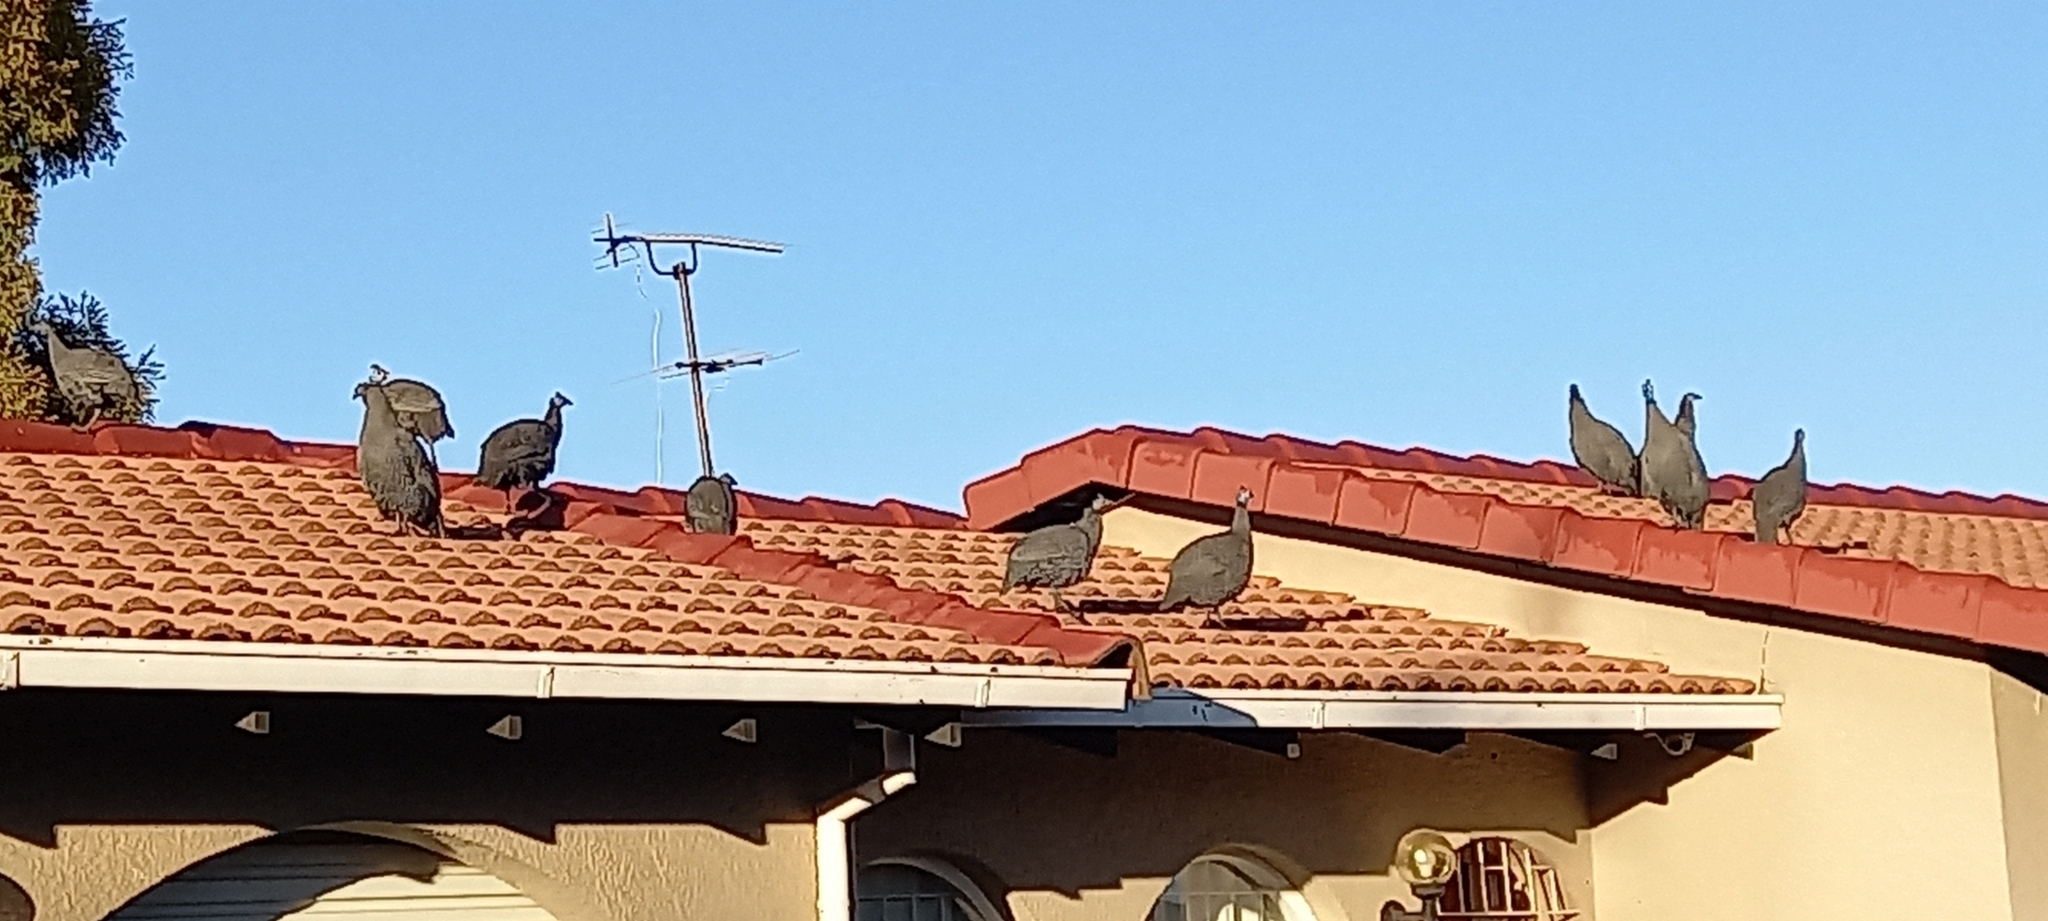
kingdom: Animalia
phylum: Chordata
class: Aves
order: Galliformes
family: Numididae
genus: Numida
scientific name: Numida meleagris
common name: Helmeted guineafowl
